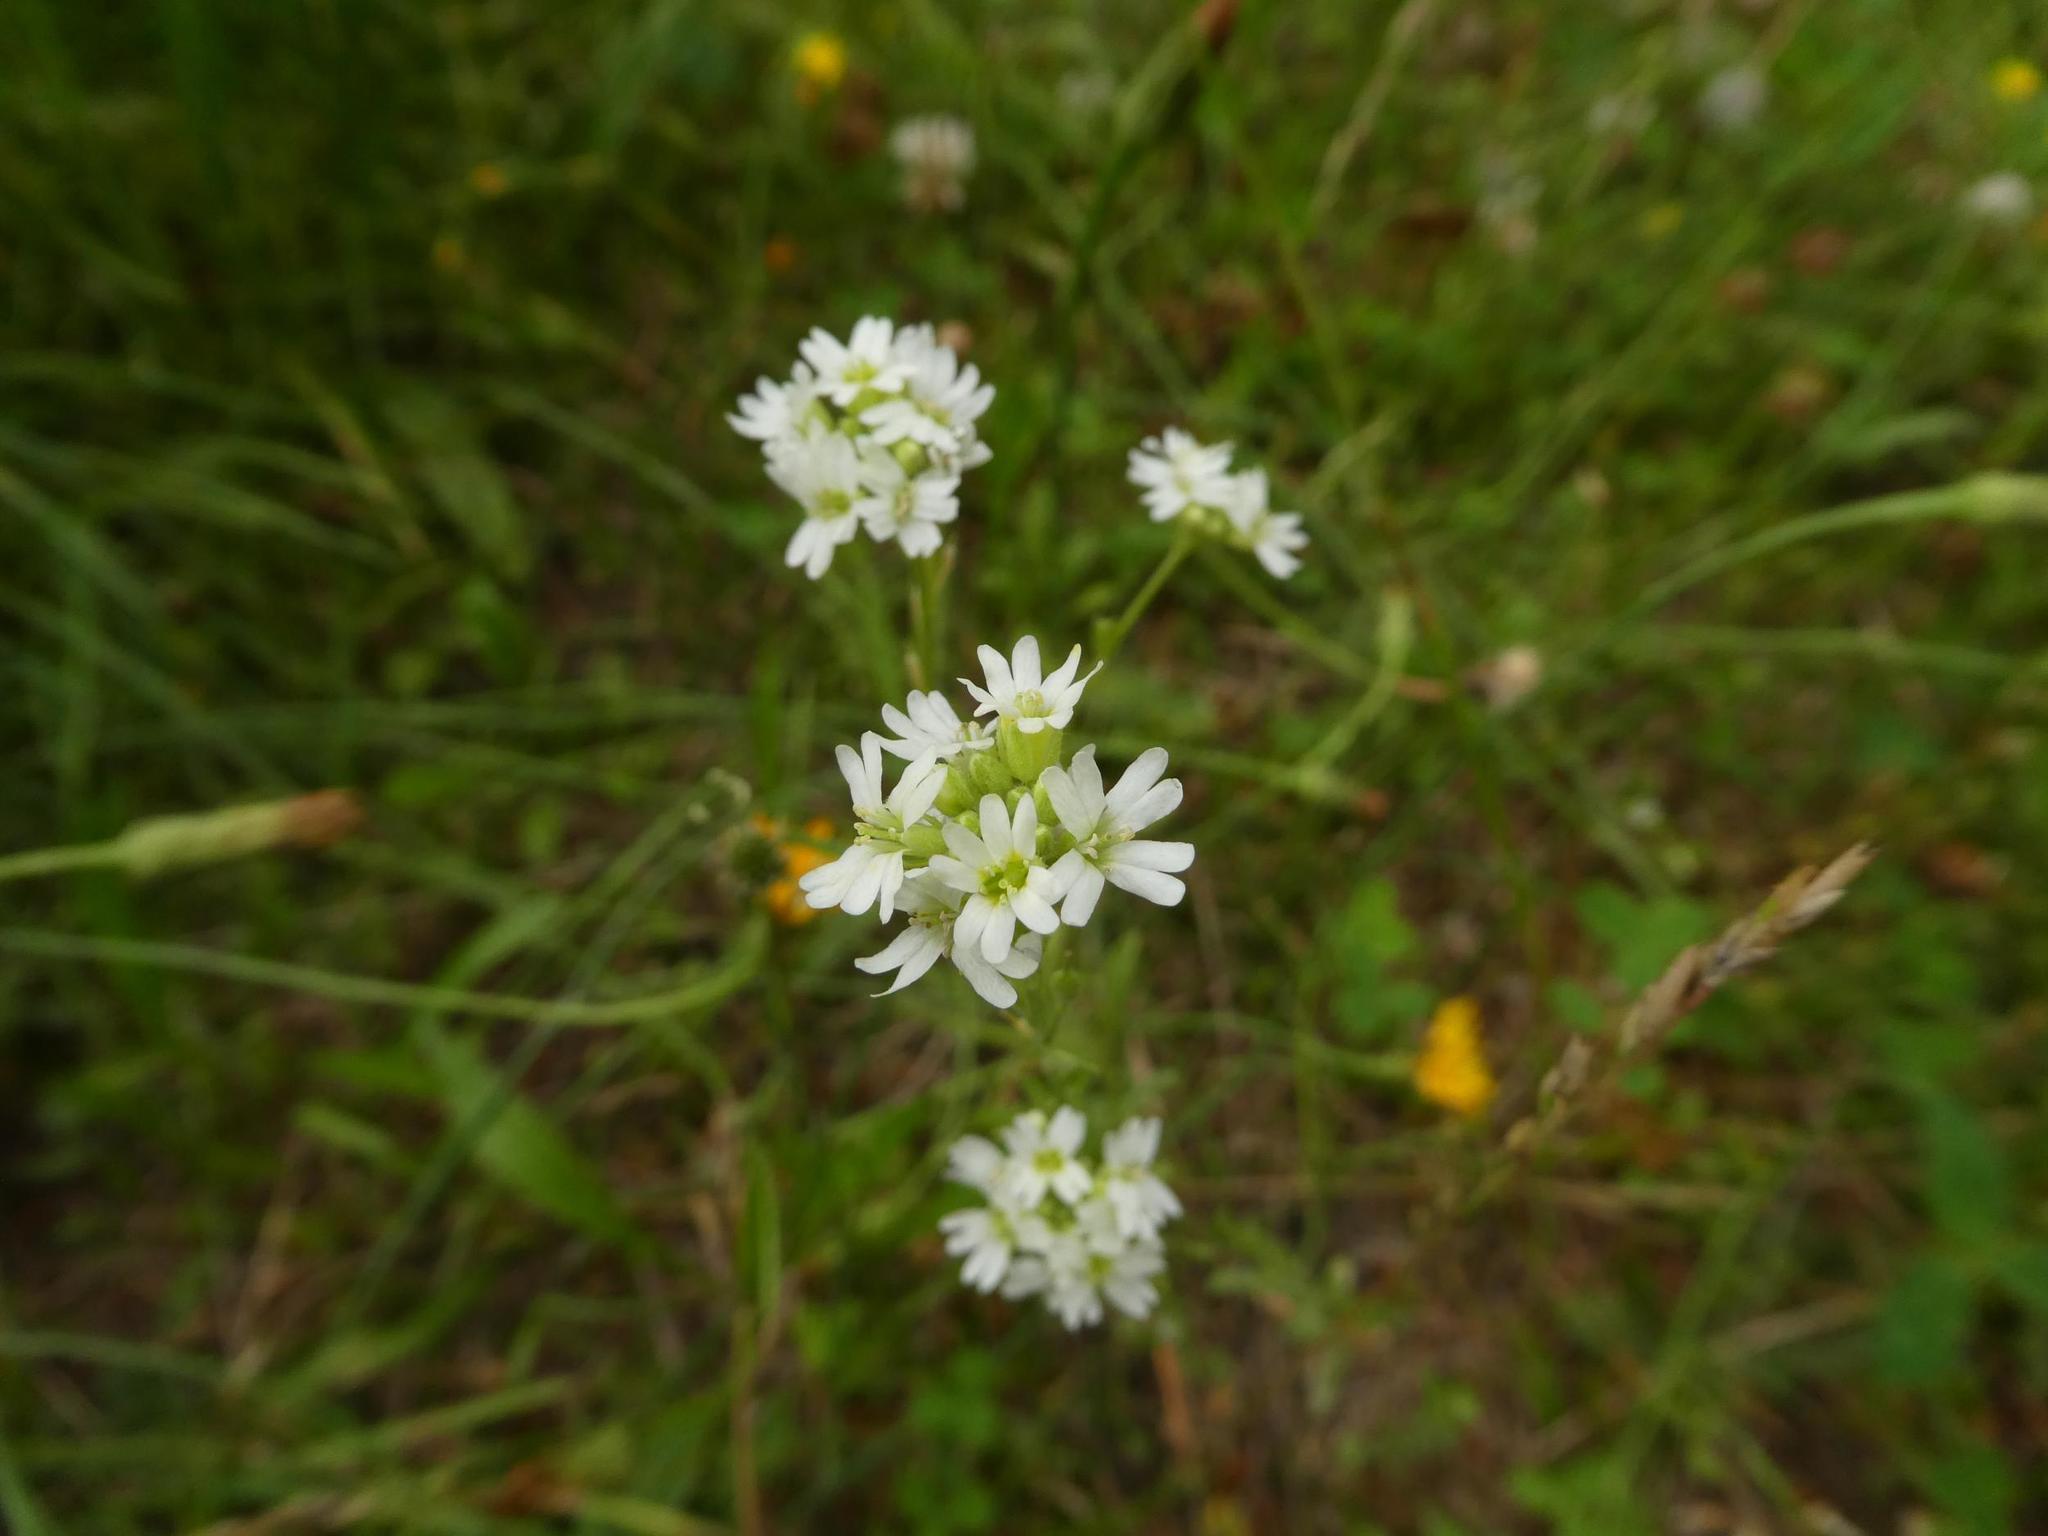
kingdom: Plantae
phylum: Tracheophyta
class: Magnoliopsida
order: Brassicales
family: Brassicaceae
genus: Berteroa
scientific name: Berteroa incana
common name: Hoary alison
